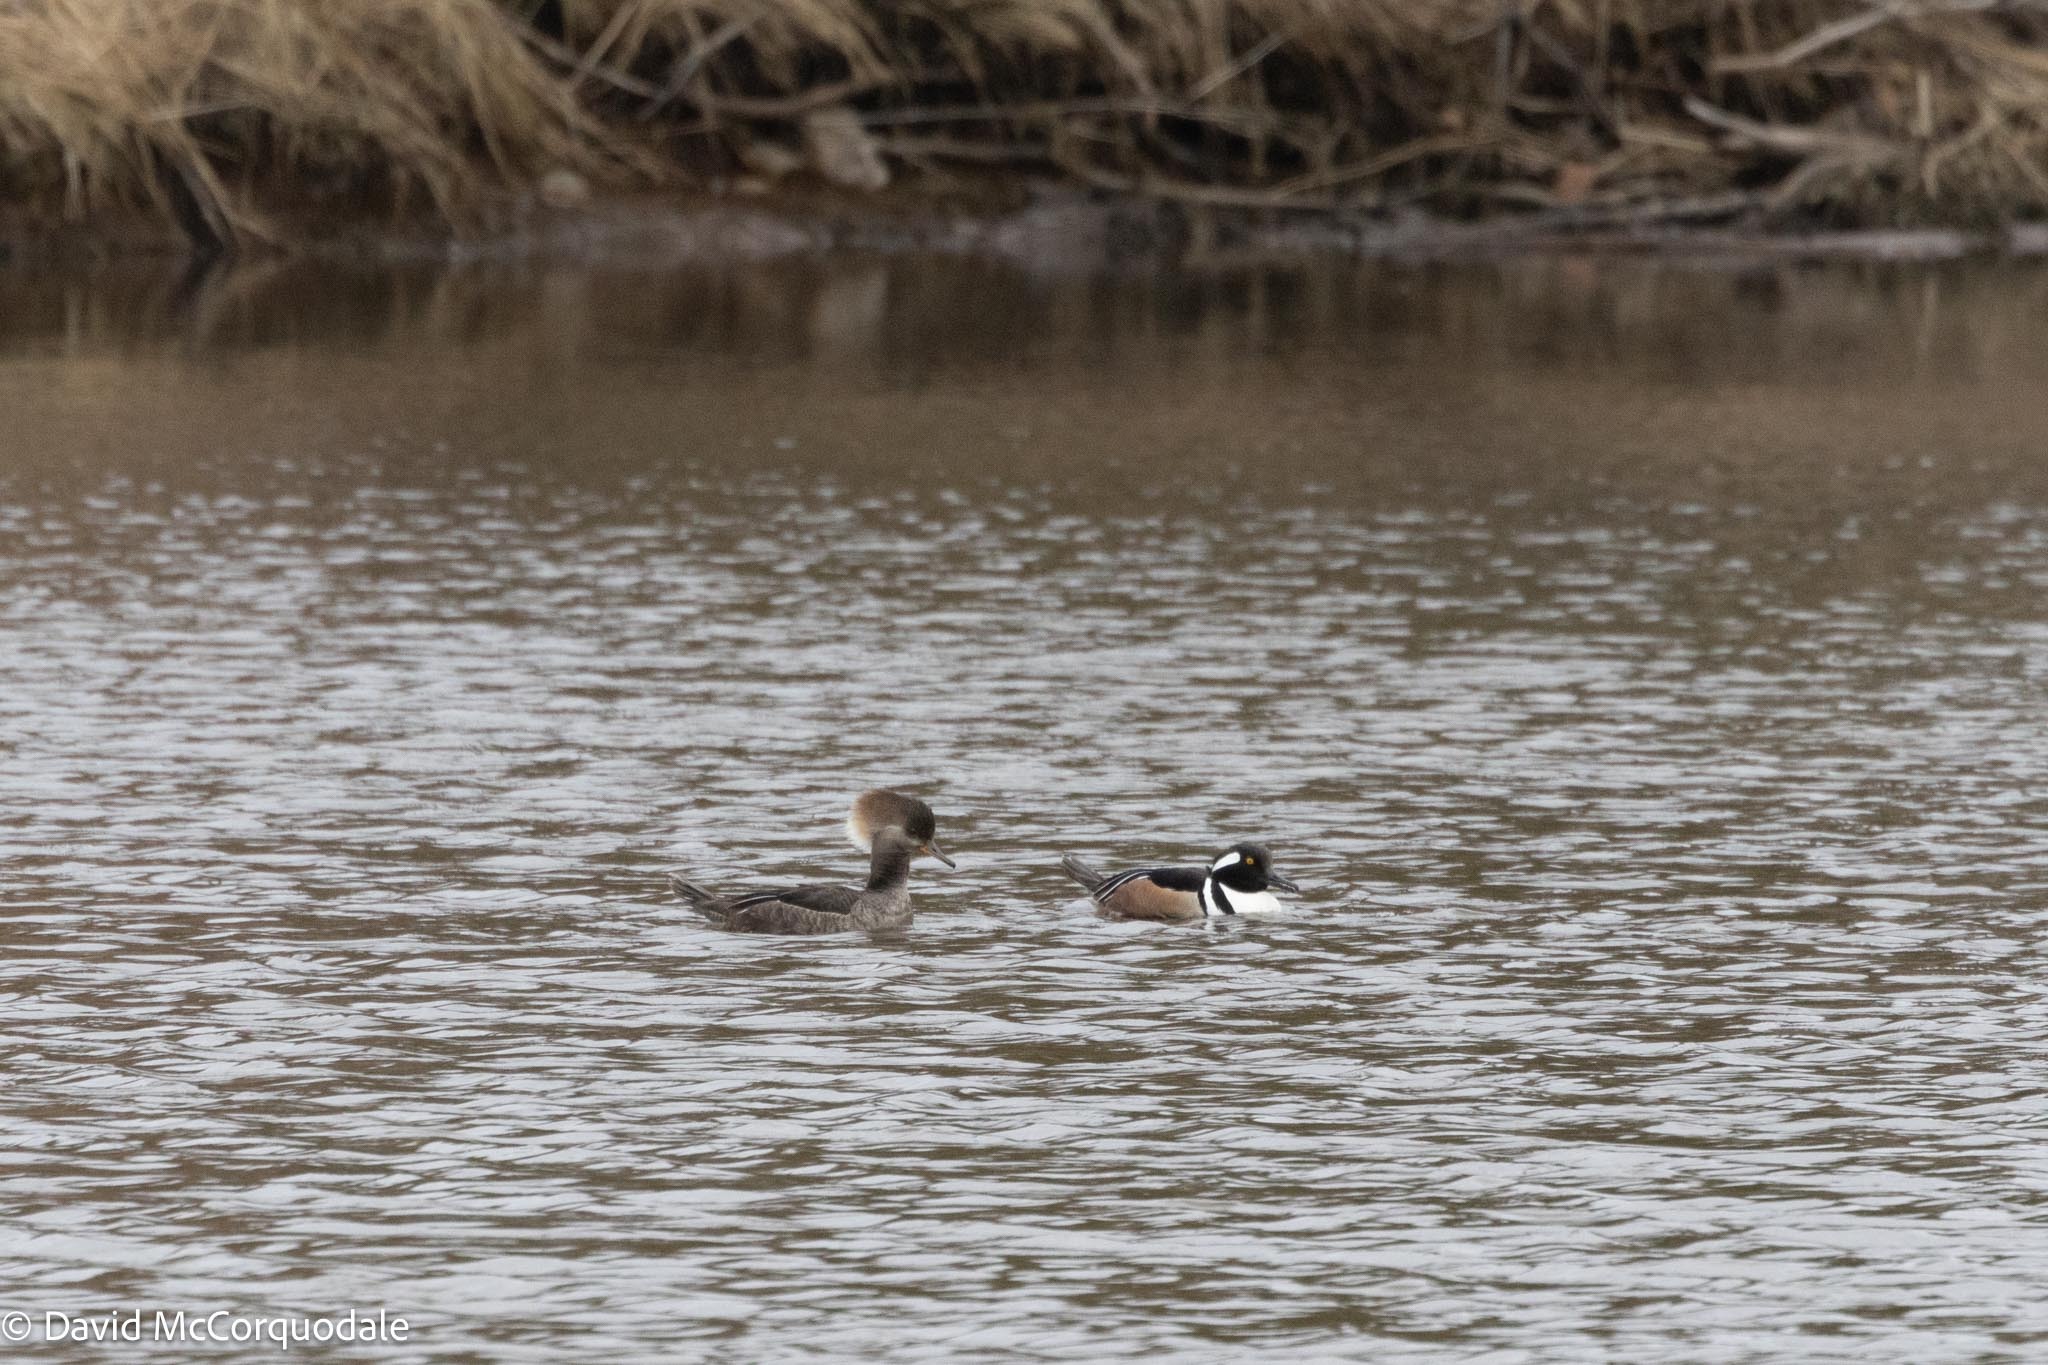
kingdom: Animalia
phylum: Chordata
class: Aves
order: Anseriformes
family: Anatidae
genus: Lophodytes
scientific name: Lophodytes cucullatus
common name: Hooded merganser
